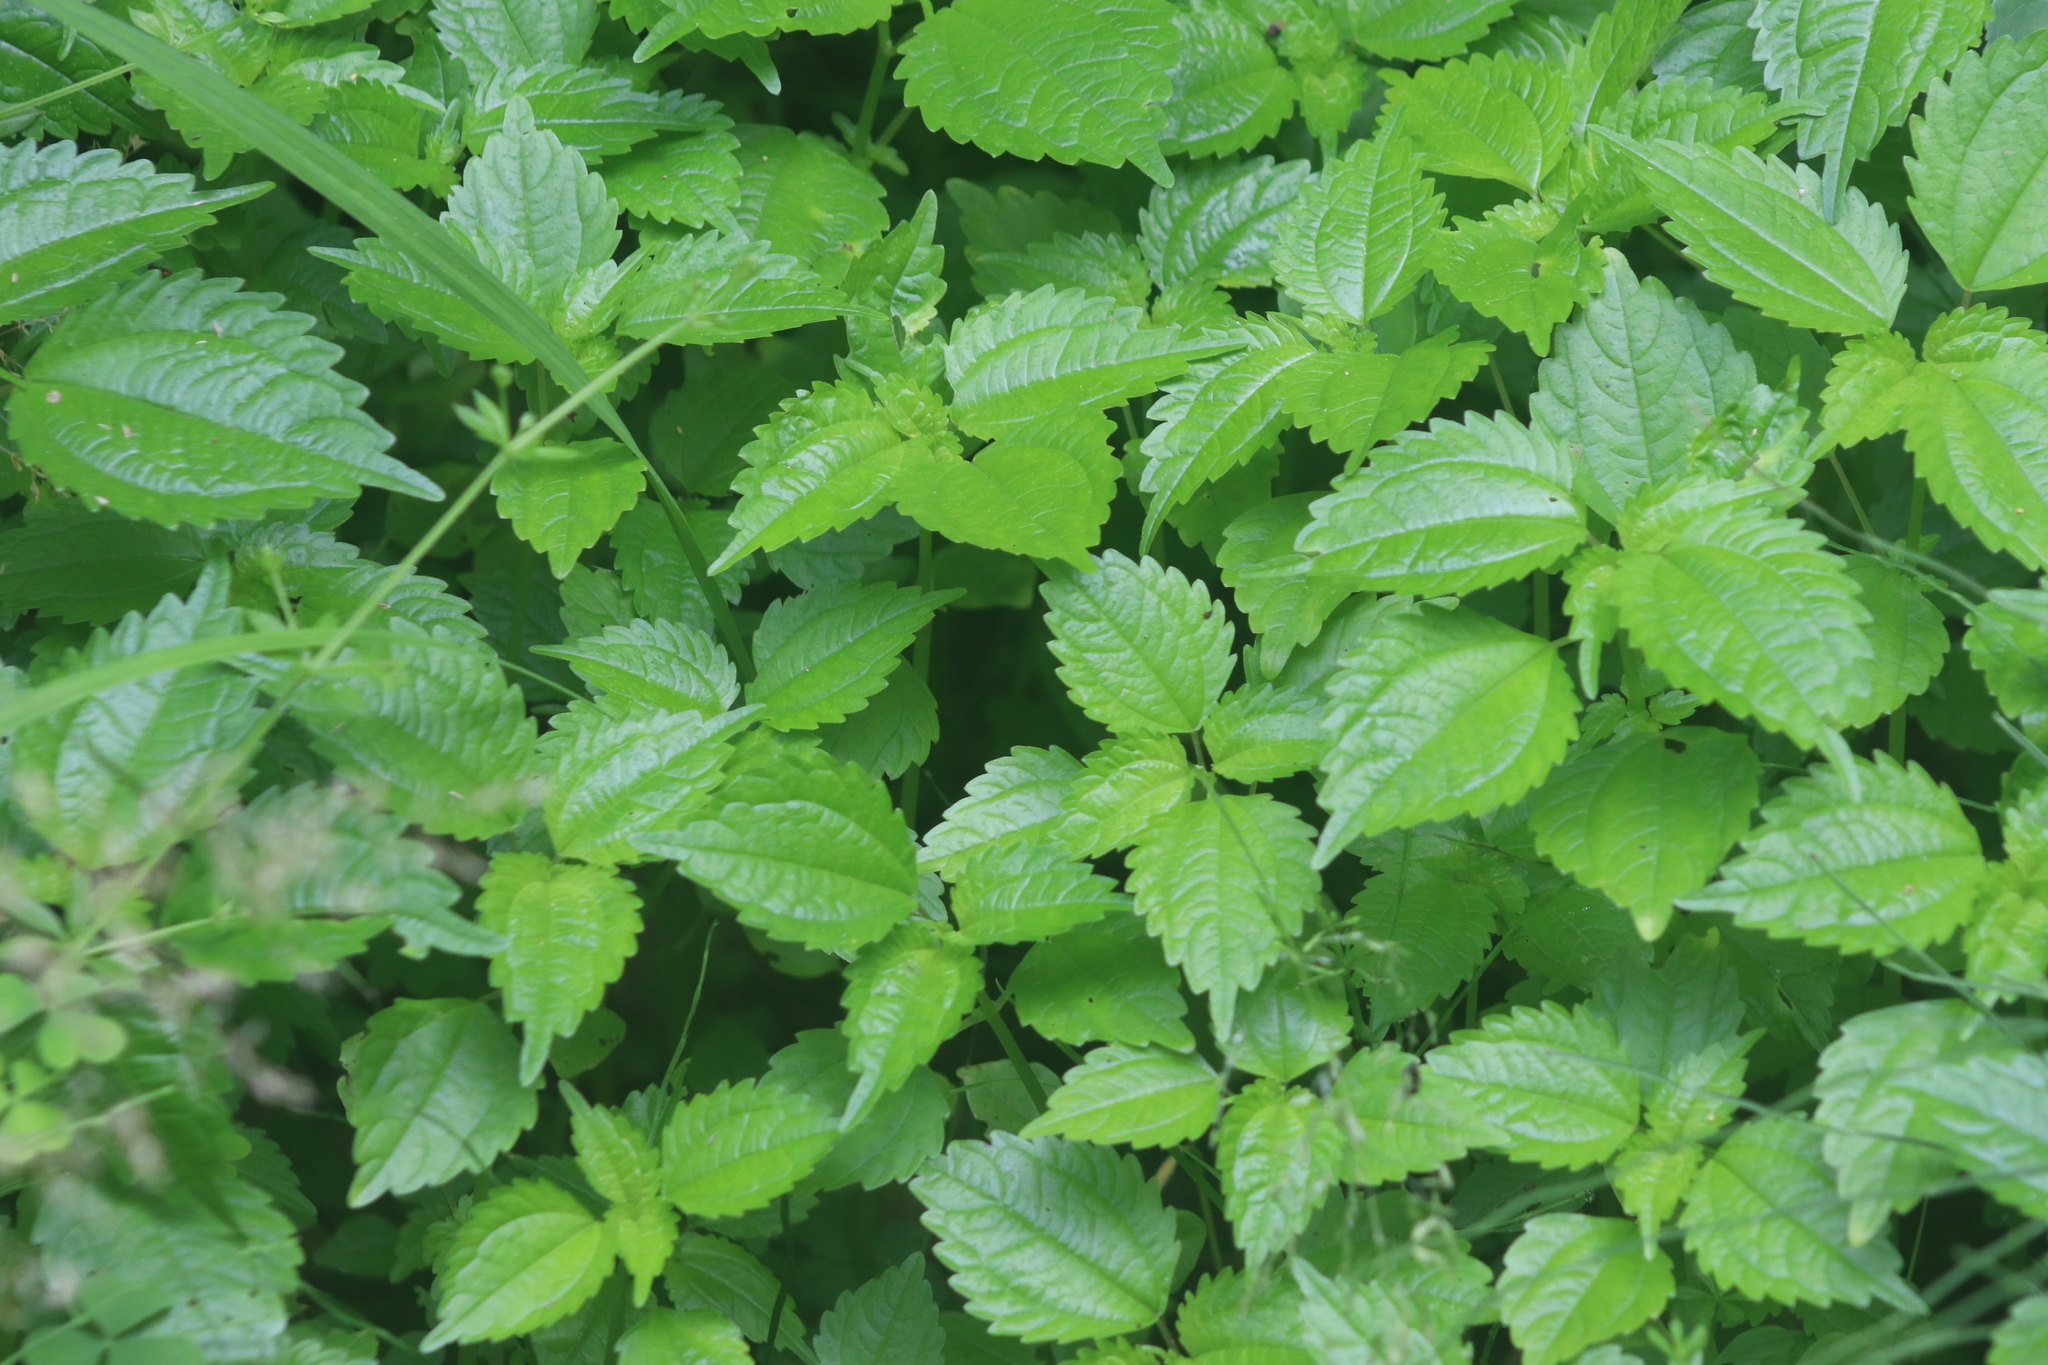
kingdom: Plantae
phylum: Tracheophyta
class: Magnoliopsida
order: Rosales
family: Urticaceae
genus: Pilea
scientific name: Pilea pumila
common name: Clearweed
